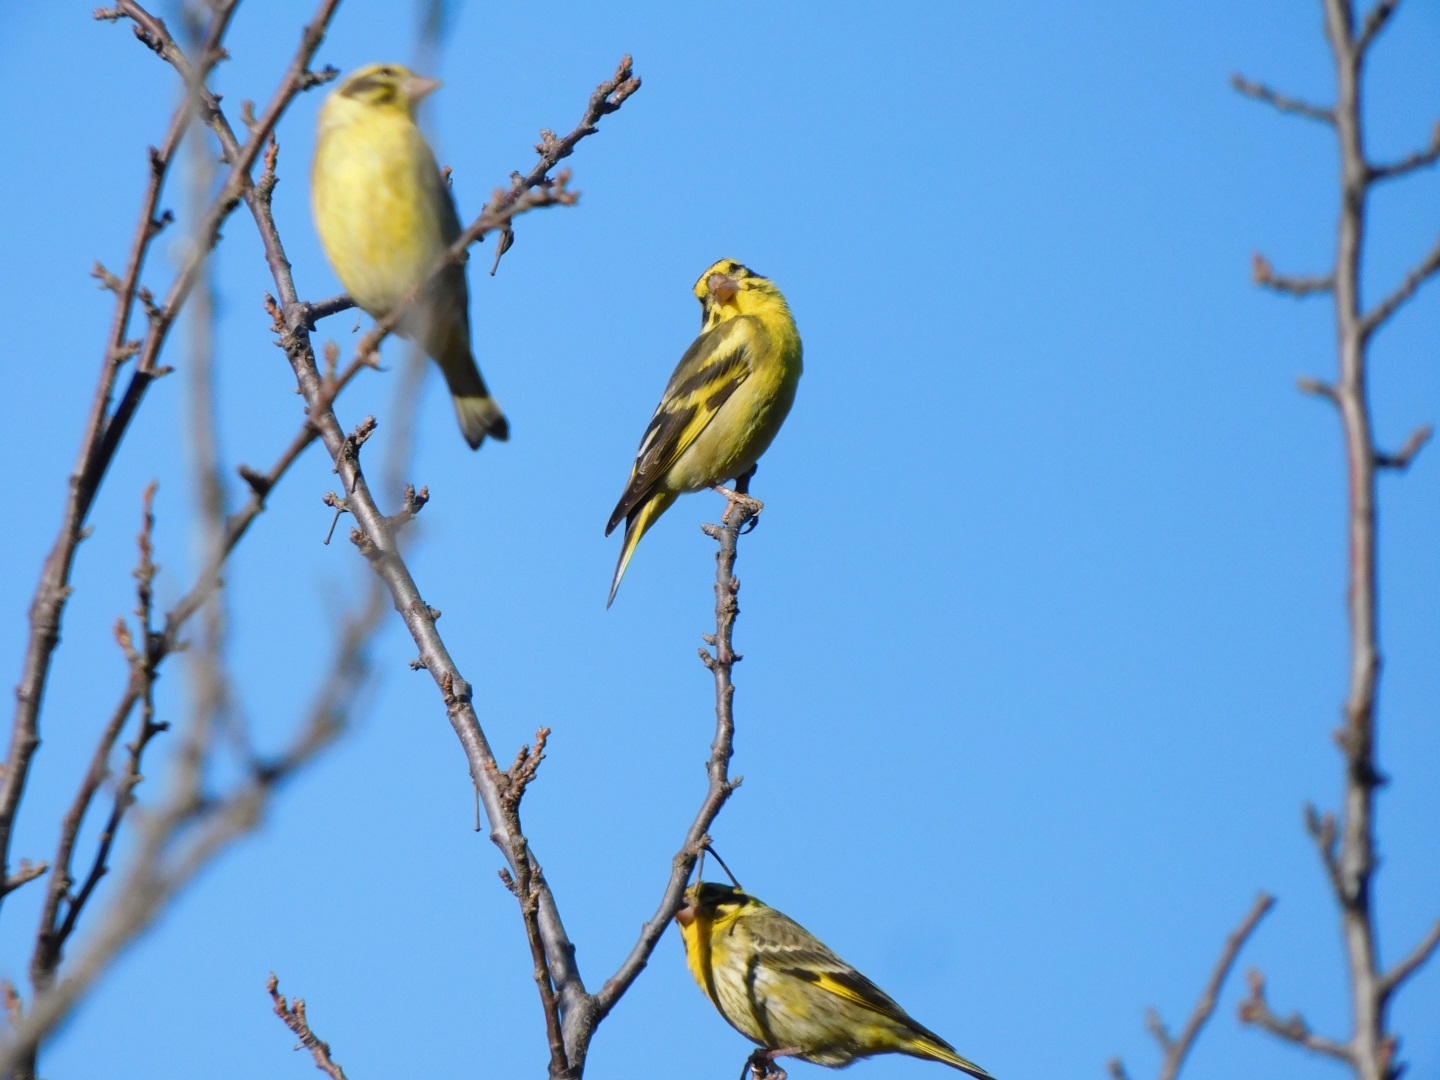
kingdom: Animalia
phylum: Chordata
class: Aves
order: Passeriformes
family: Fringillidae
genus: Chloris
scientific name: Chloris spinoides
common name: Yellow-breasted greenfinch
